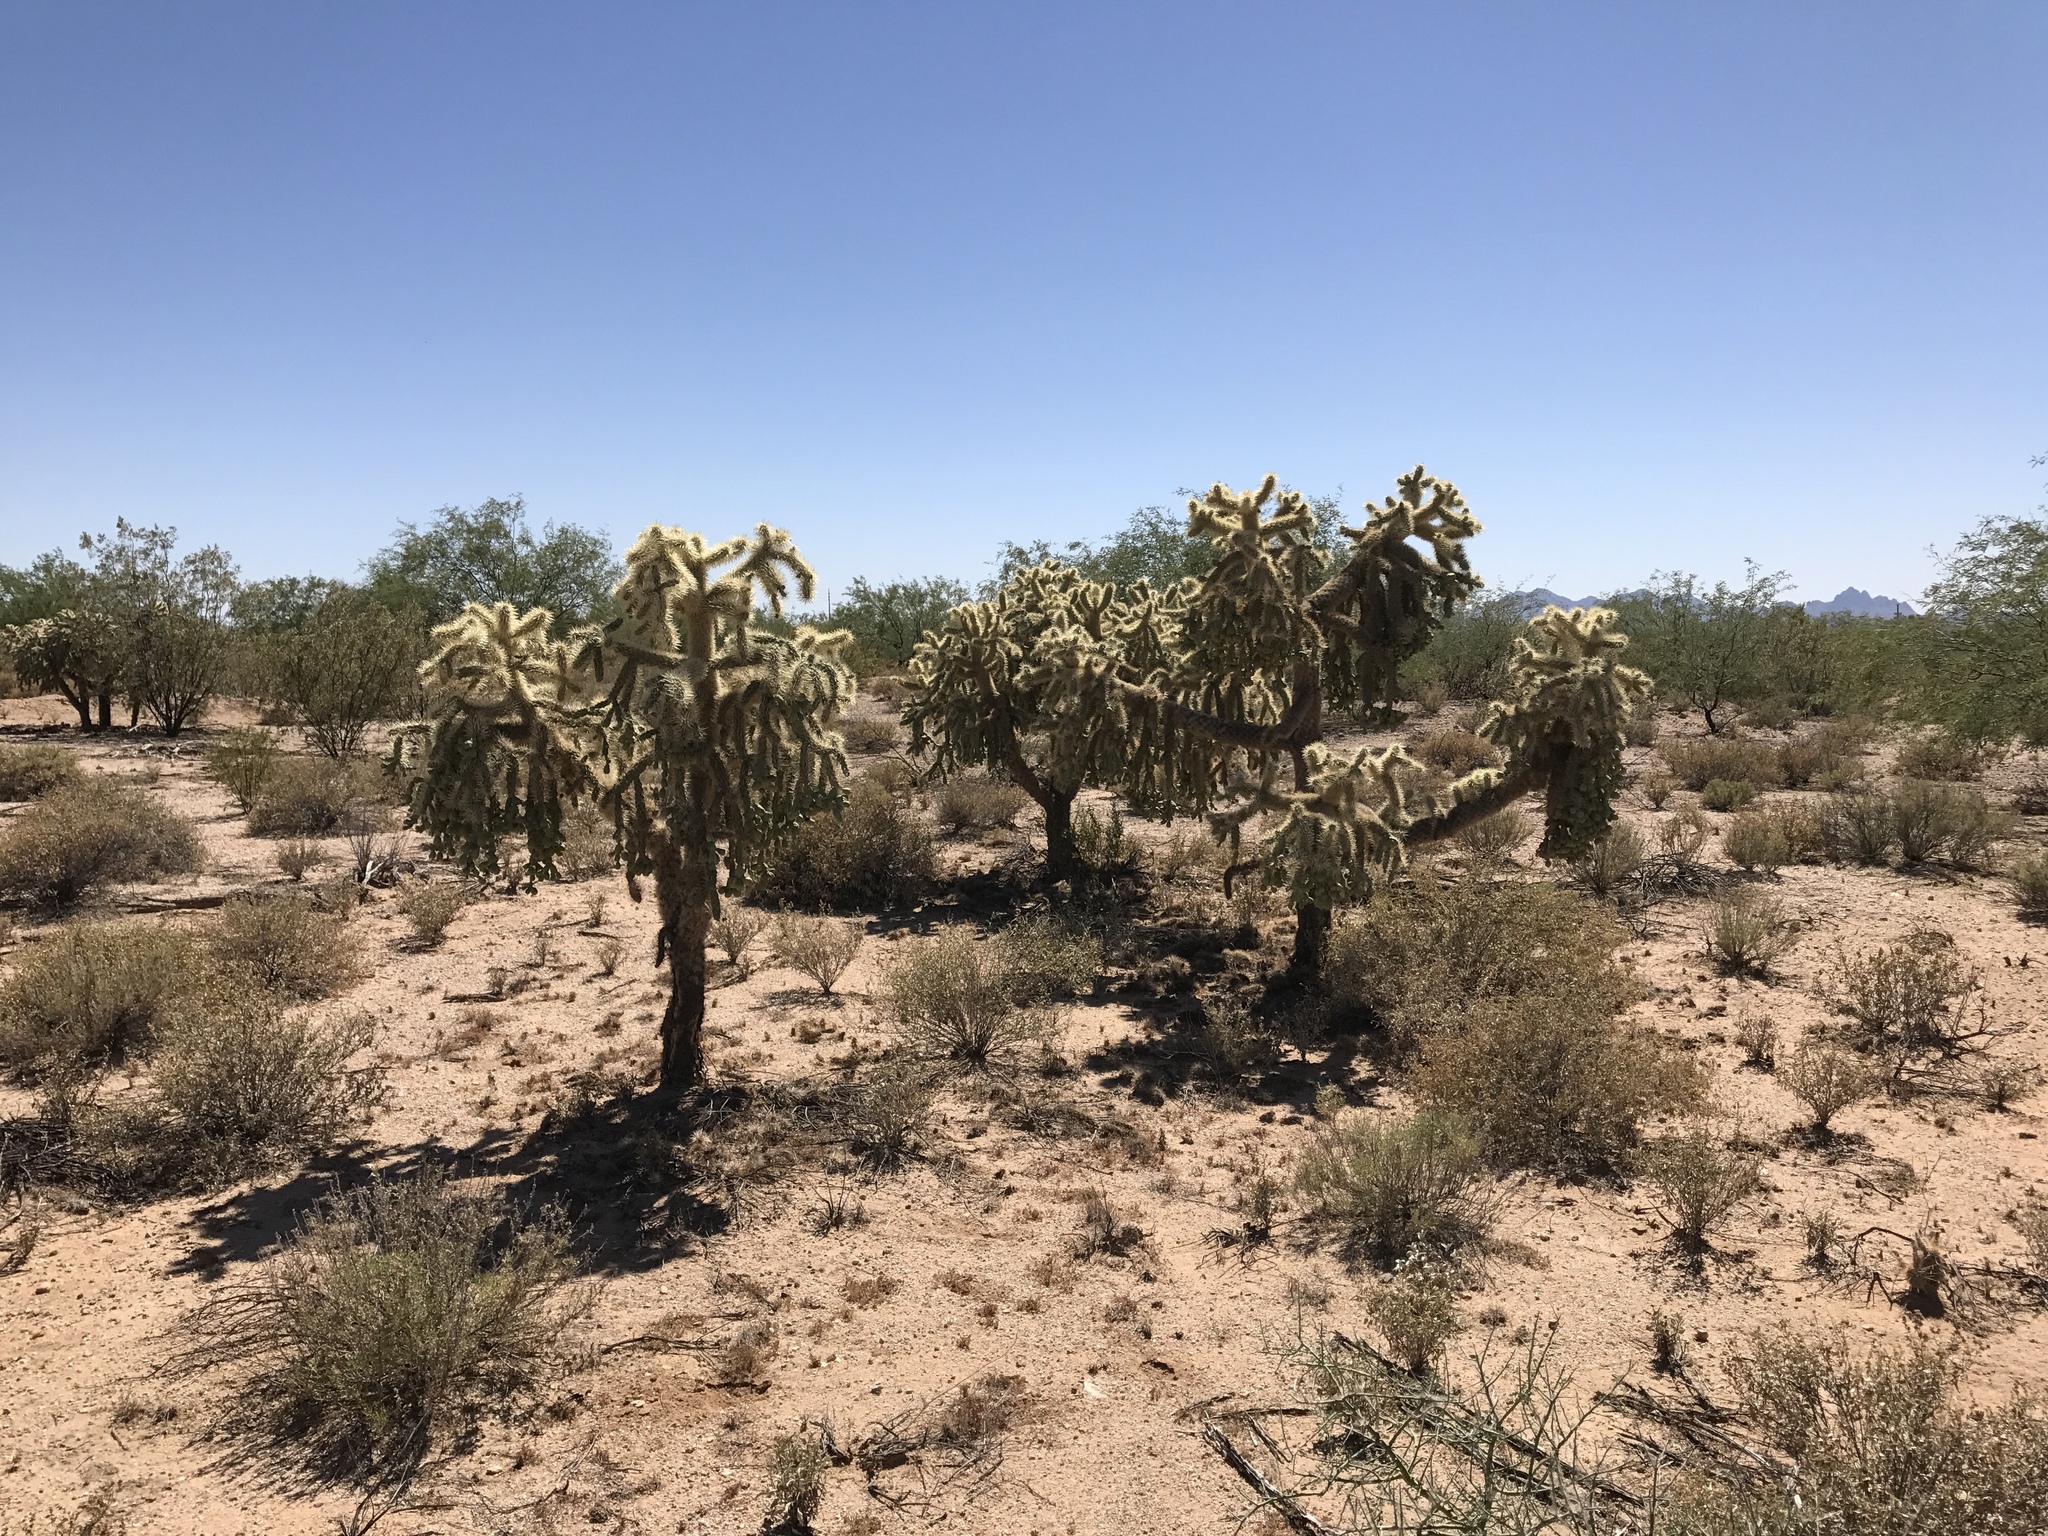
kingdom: Plantae
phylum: Tracheophyta
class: Magnoliopsida
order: Caryophyllales
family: Cactaceae
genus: Cylindropuntia
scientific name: Cylindropuntia fulgida
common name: Jumping cholla
